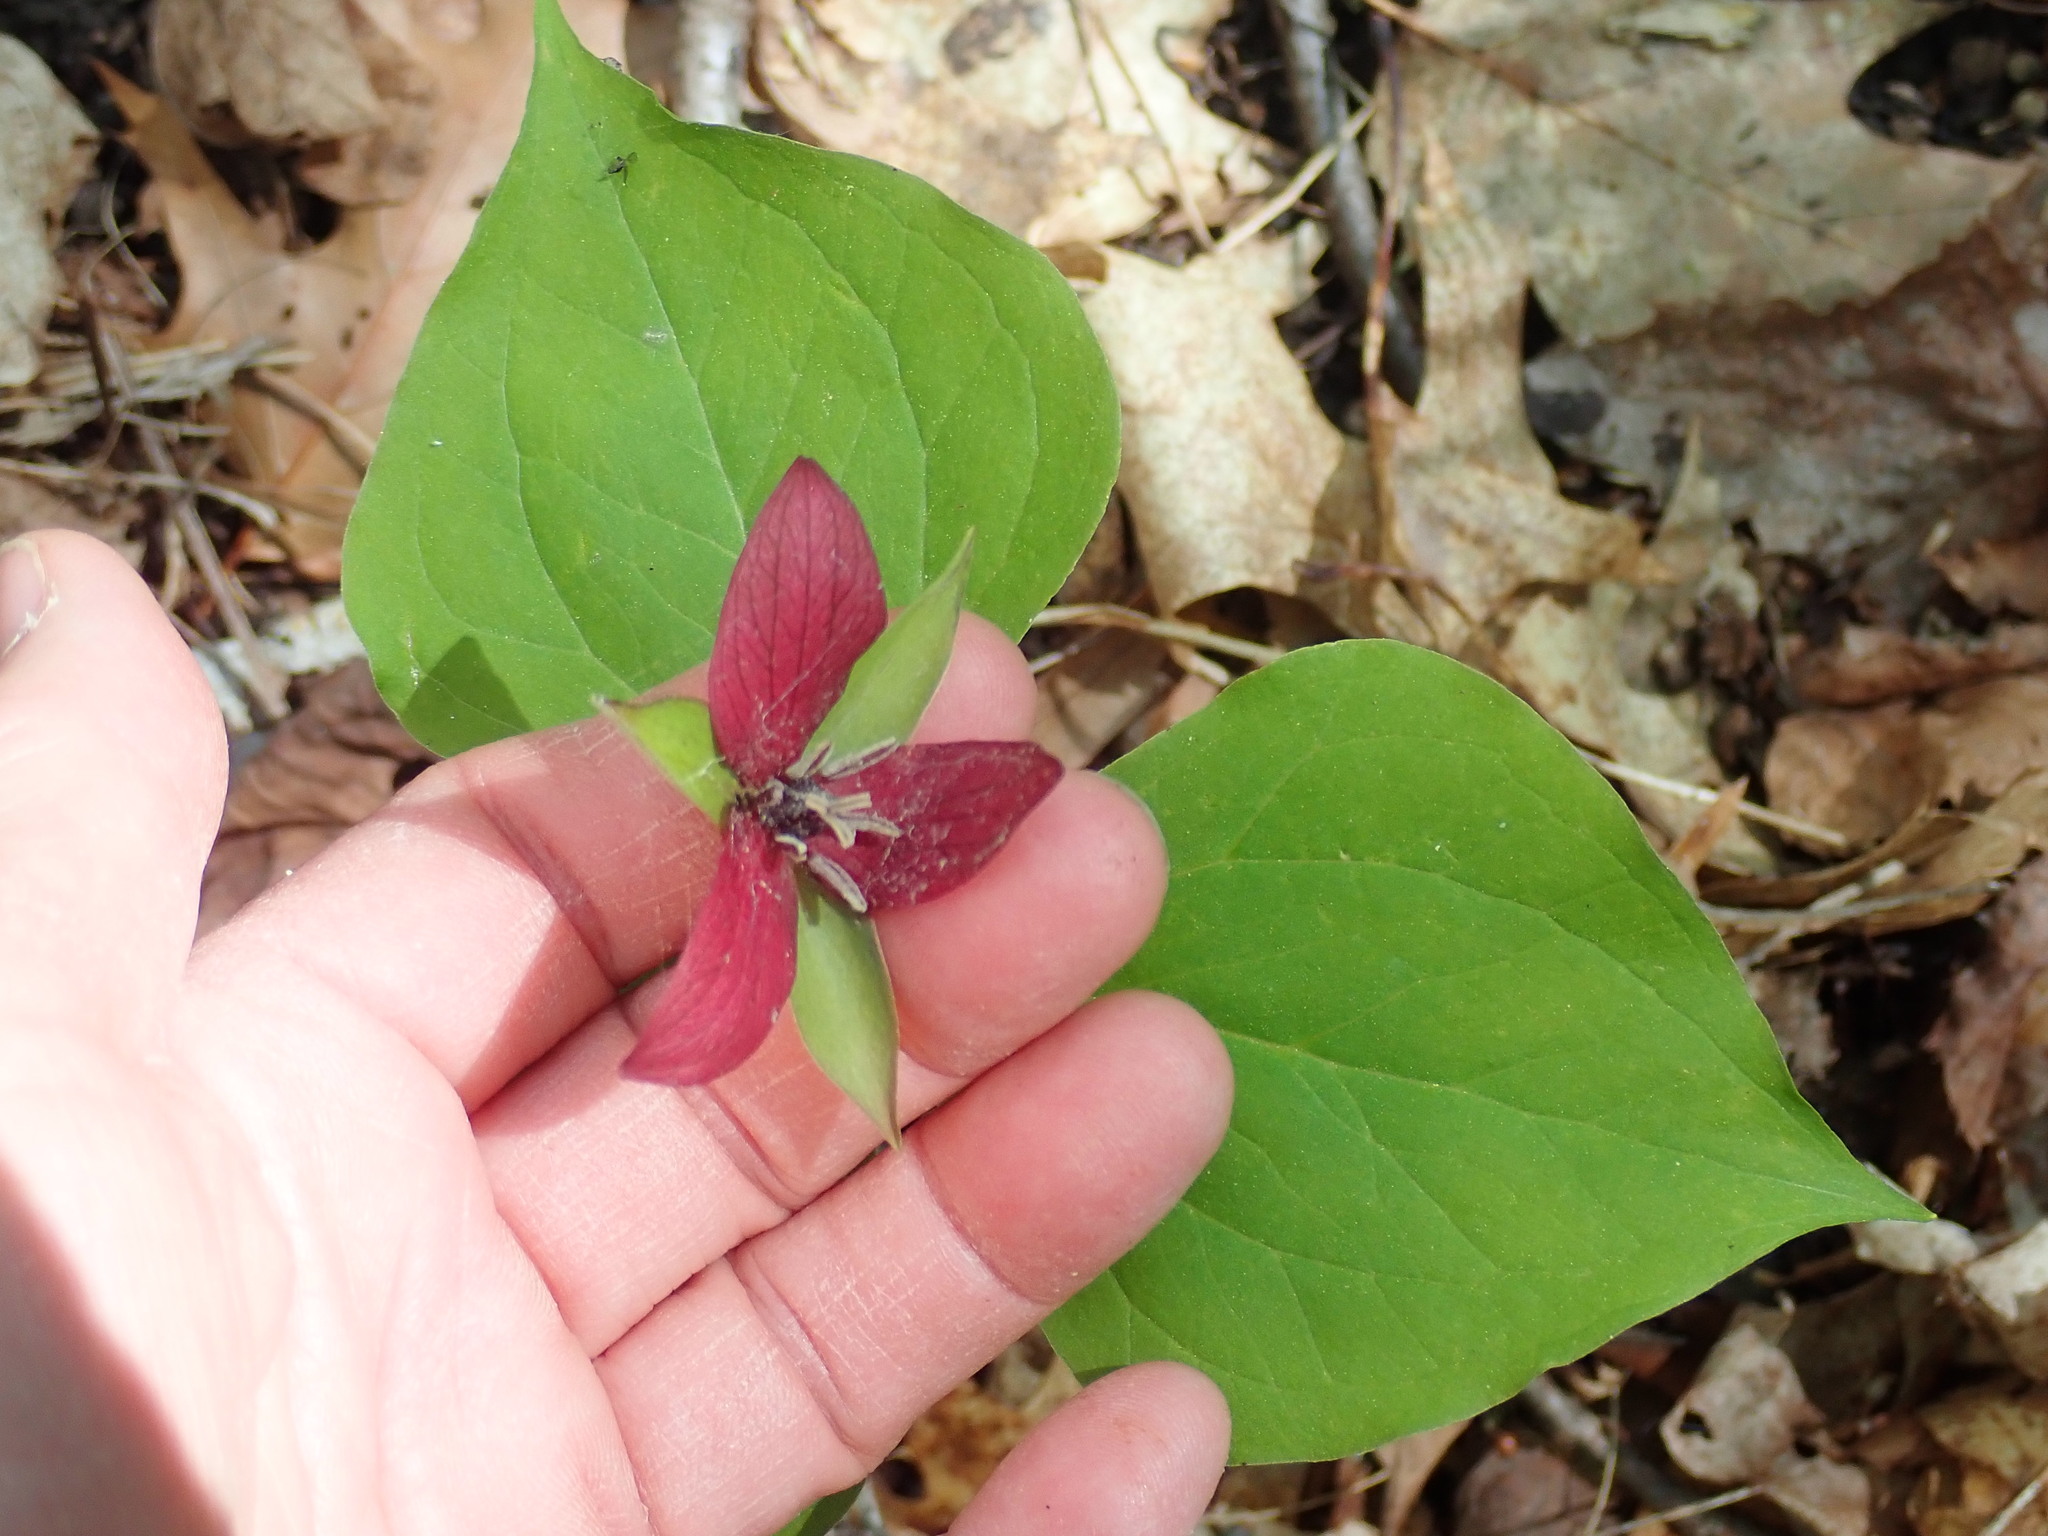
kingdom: Plantae
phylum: Tracheophyta
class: Liliopsida
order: Liliales
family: Melanthiaceae
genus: Trillium
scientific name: Trillium erectum
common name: Purple trillium
